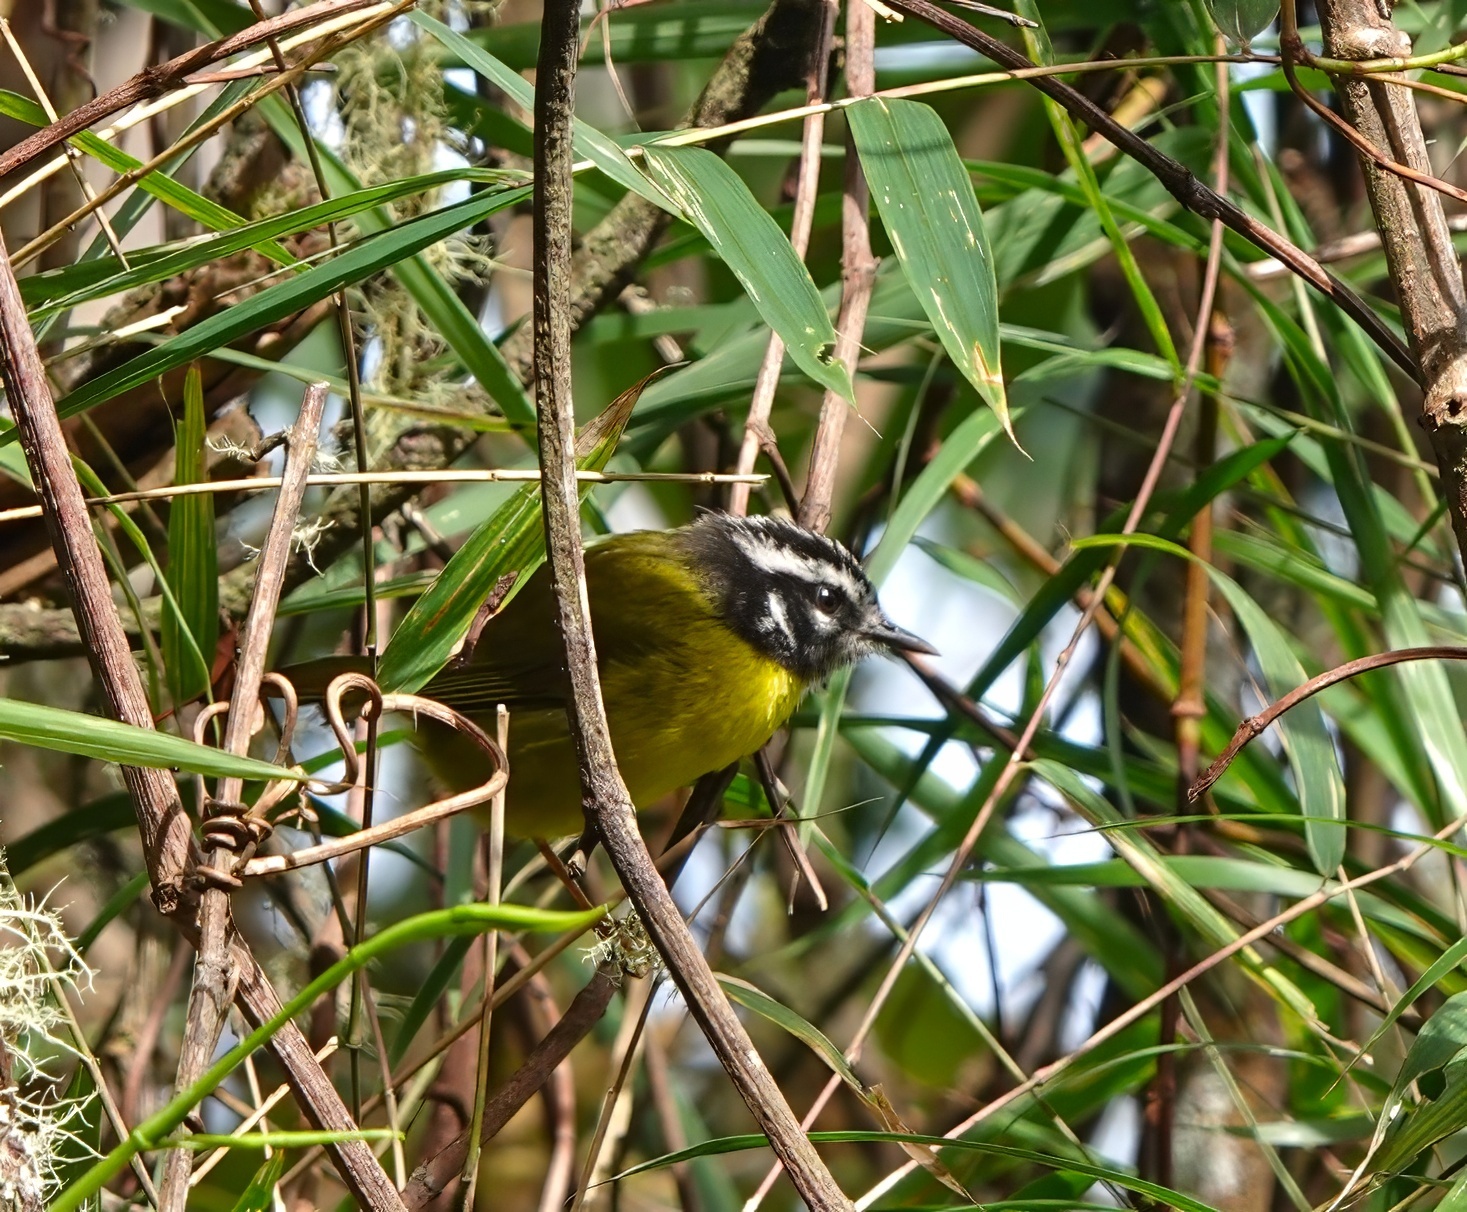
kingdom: Animalia
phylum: Chordata
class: Aves
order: Passeriformes
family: Parulidae
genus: Basileuterus
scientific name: Basileuterus basilicus
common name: Santa marta warbler
